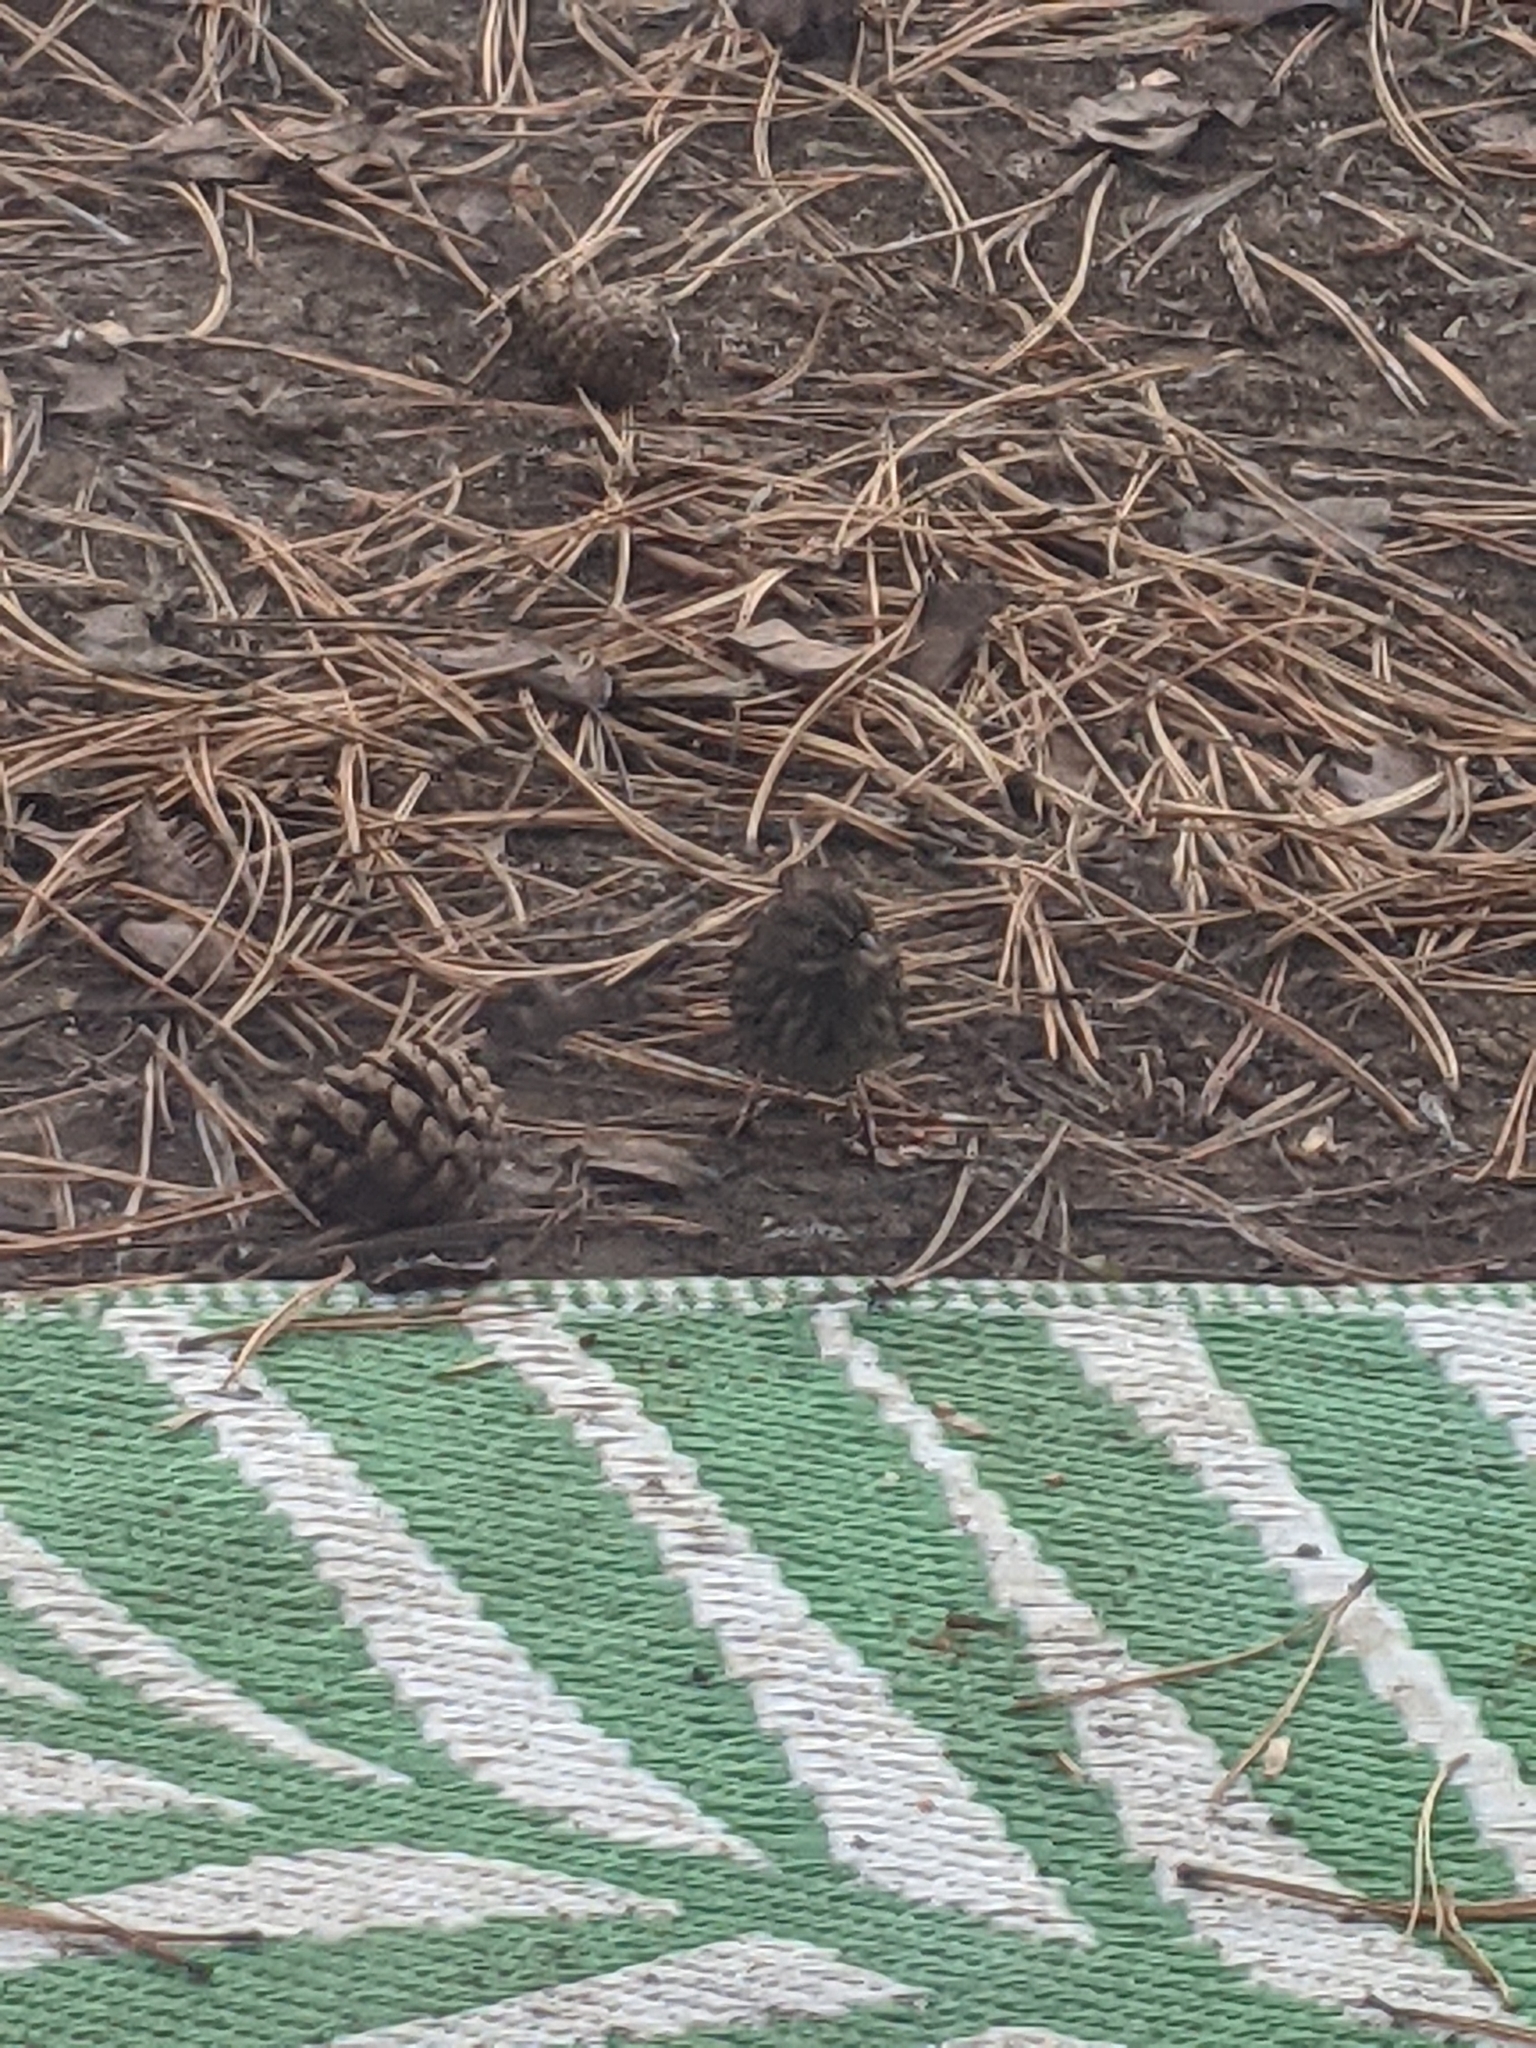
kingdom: Animalia
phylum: Chordata
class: Aves
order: Passeriformes
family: Passerellidae
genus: Melospiza
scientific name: Melospiza melodia
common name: Song sparrow
